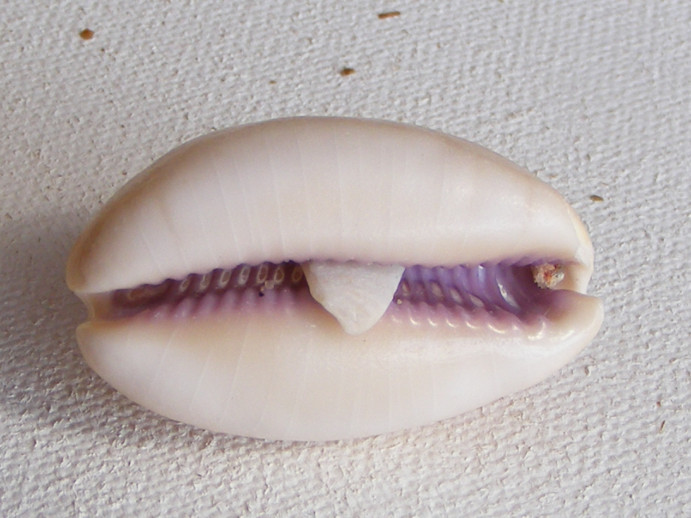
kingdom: Animalia
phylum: Mollusca
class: Gastropoda
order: Littorinimorpha
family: Cypraeidae
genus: Lyncina
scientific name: Lyncina carneola
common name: Purple-mouthed cowry
